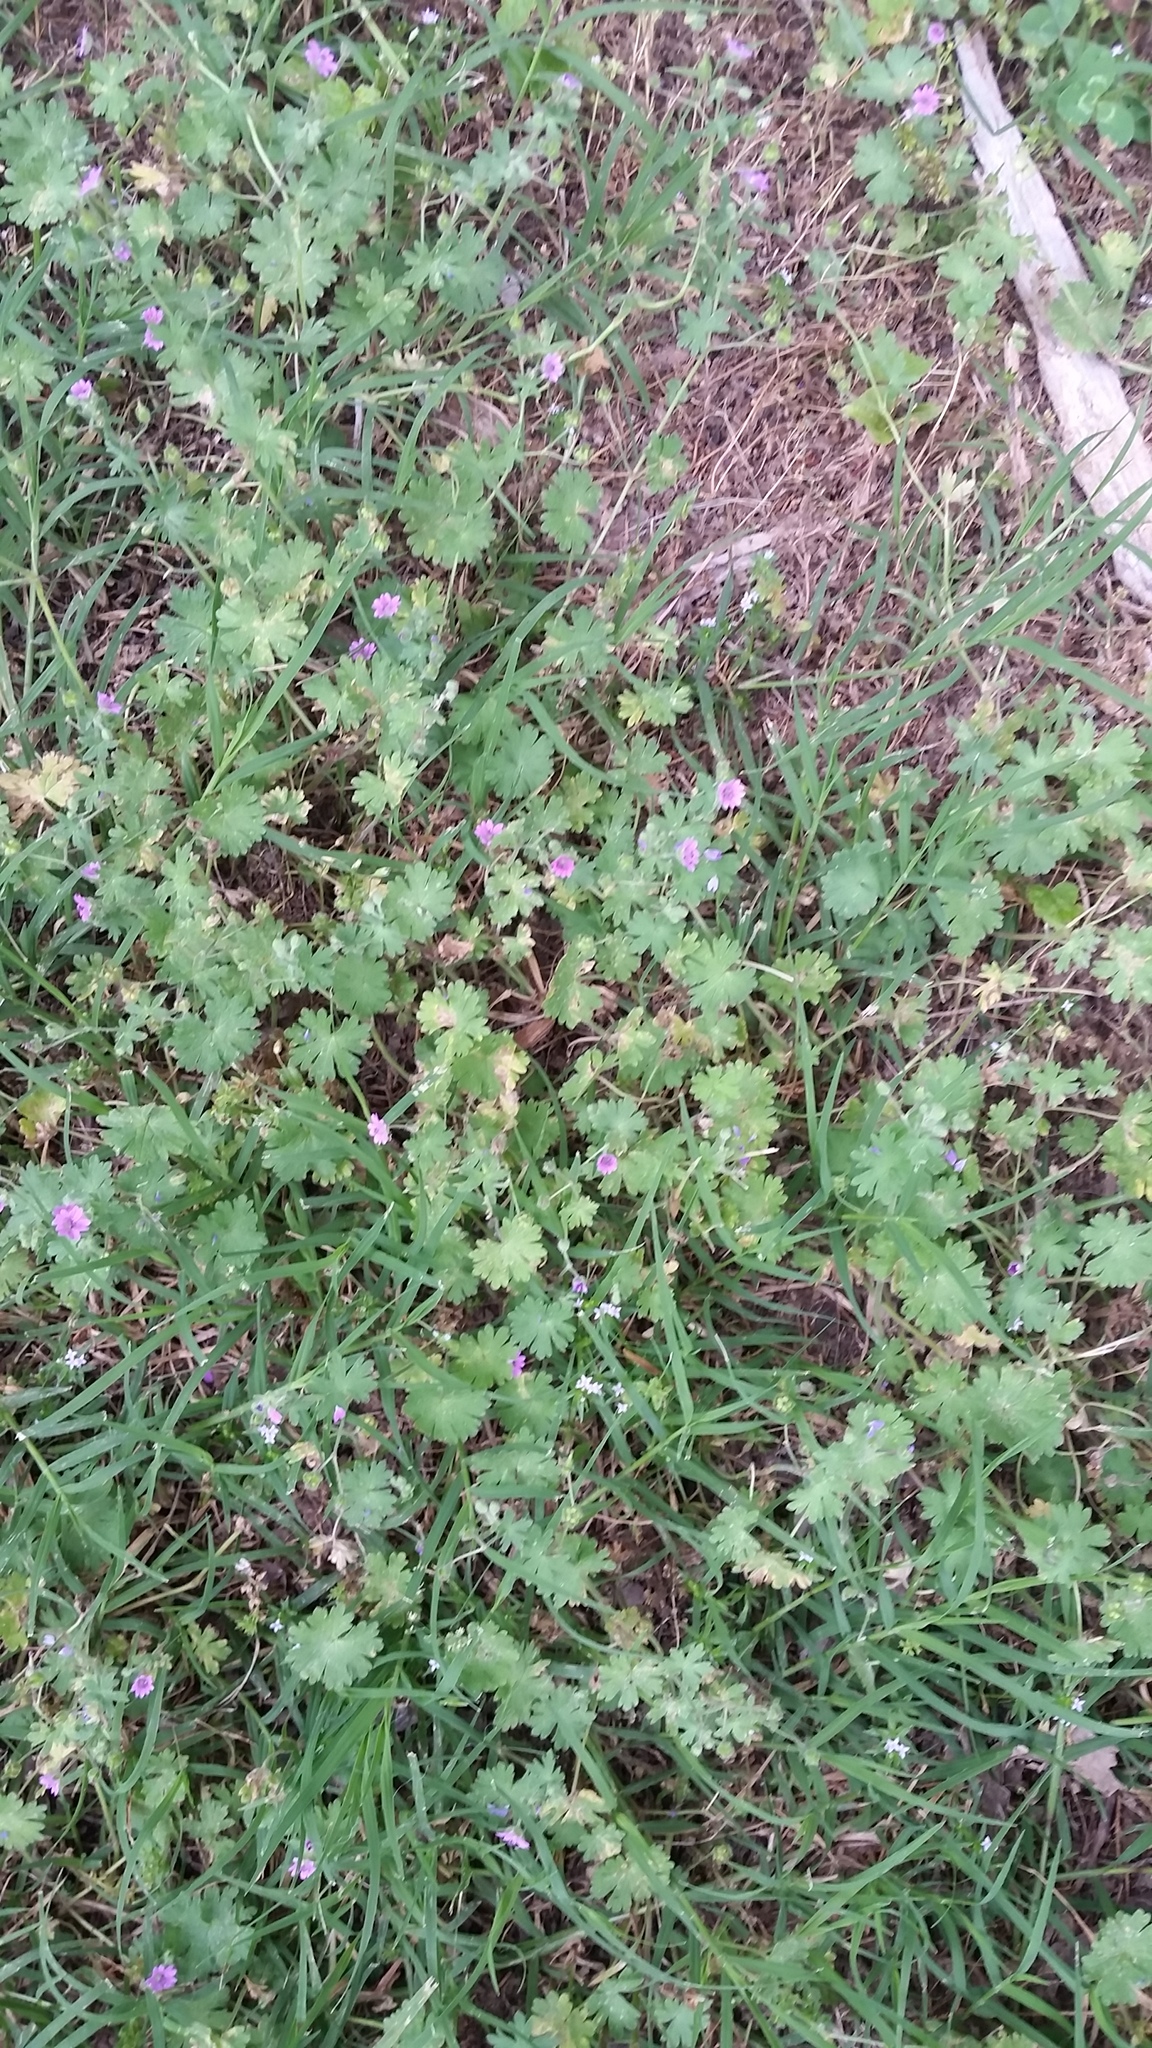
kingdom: Plantae
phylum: Tracheophyta
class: Magnoliopsida
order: Geraniales
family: Geraniaceae
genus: Geranium
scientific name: Geranium molle
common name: Dove's-foot crane's-bill
